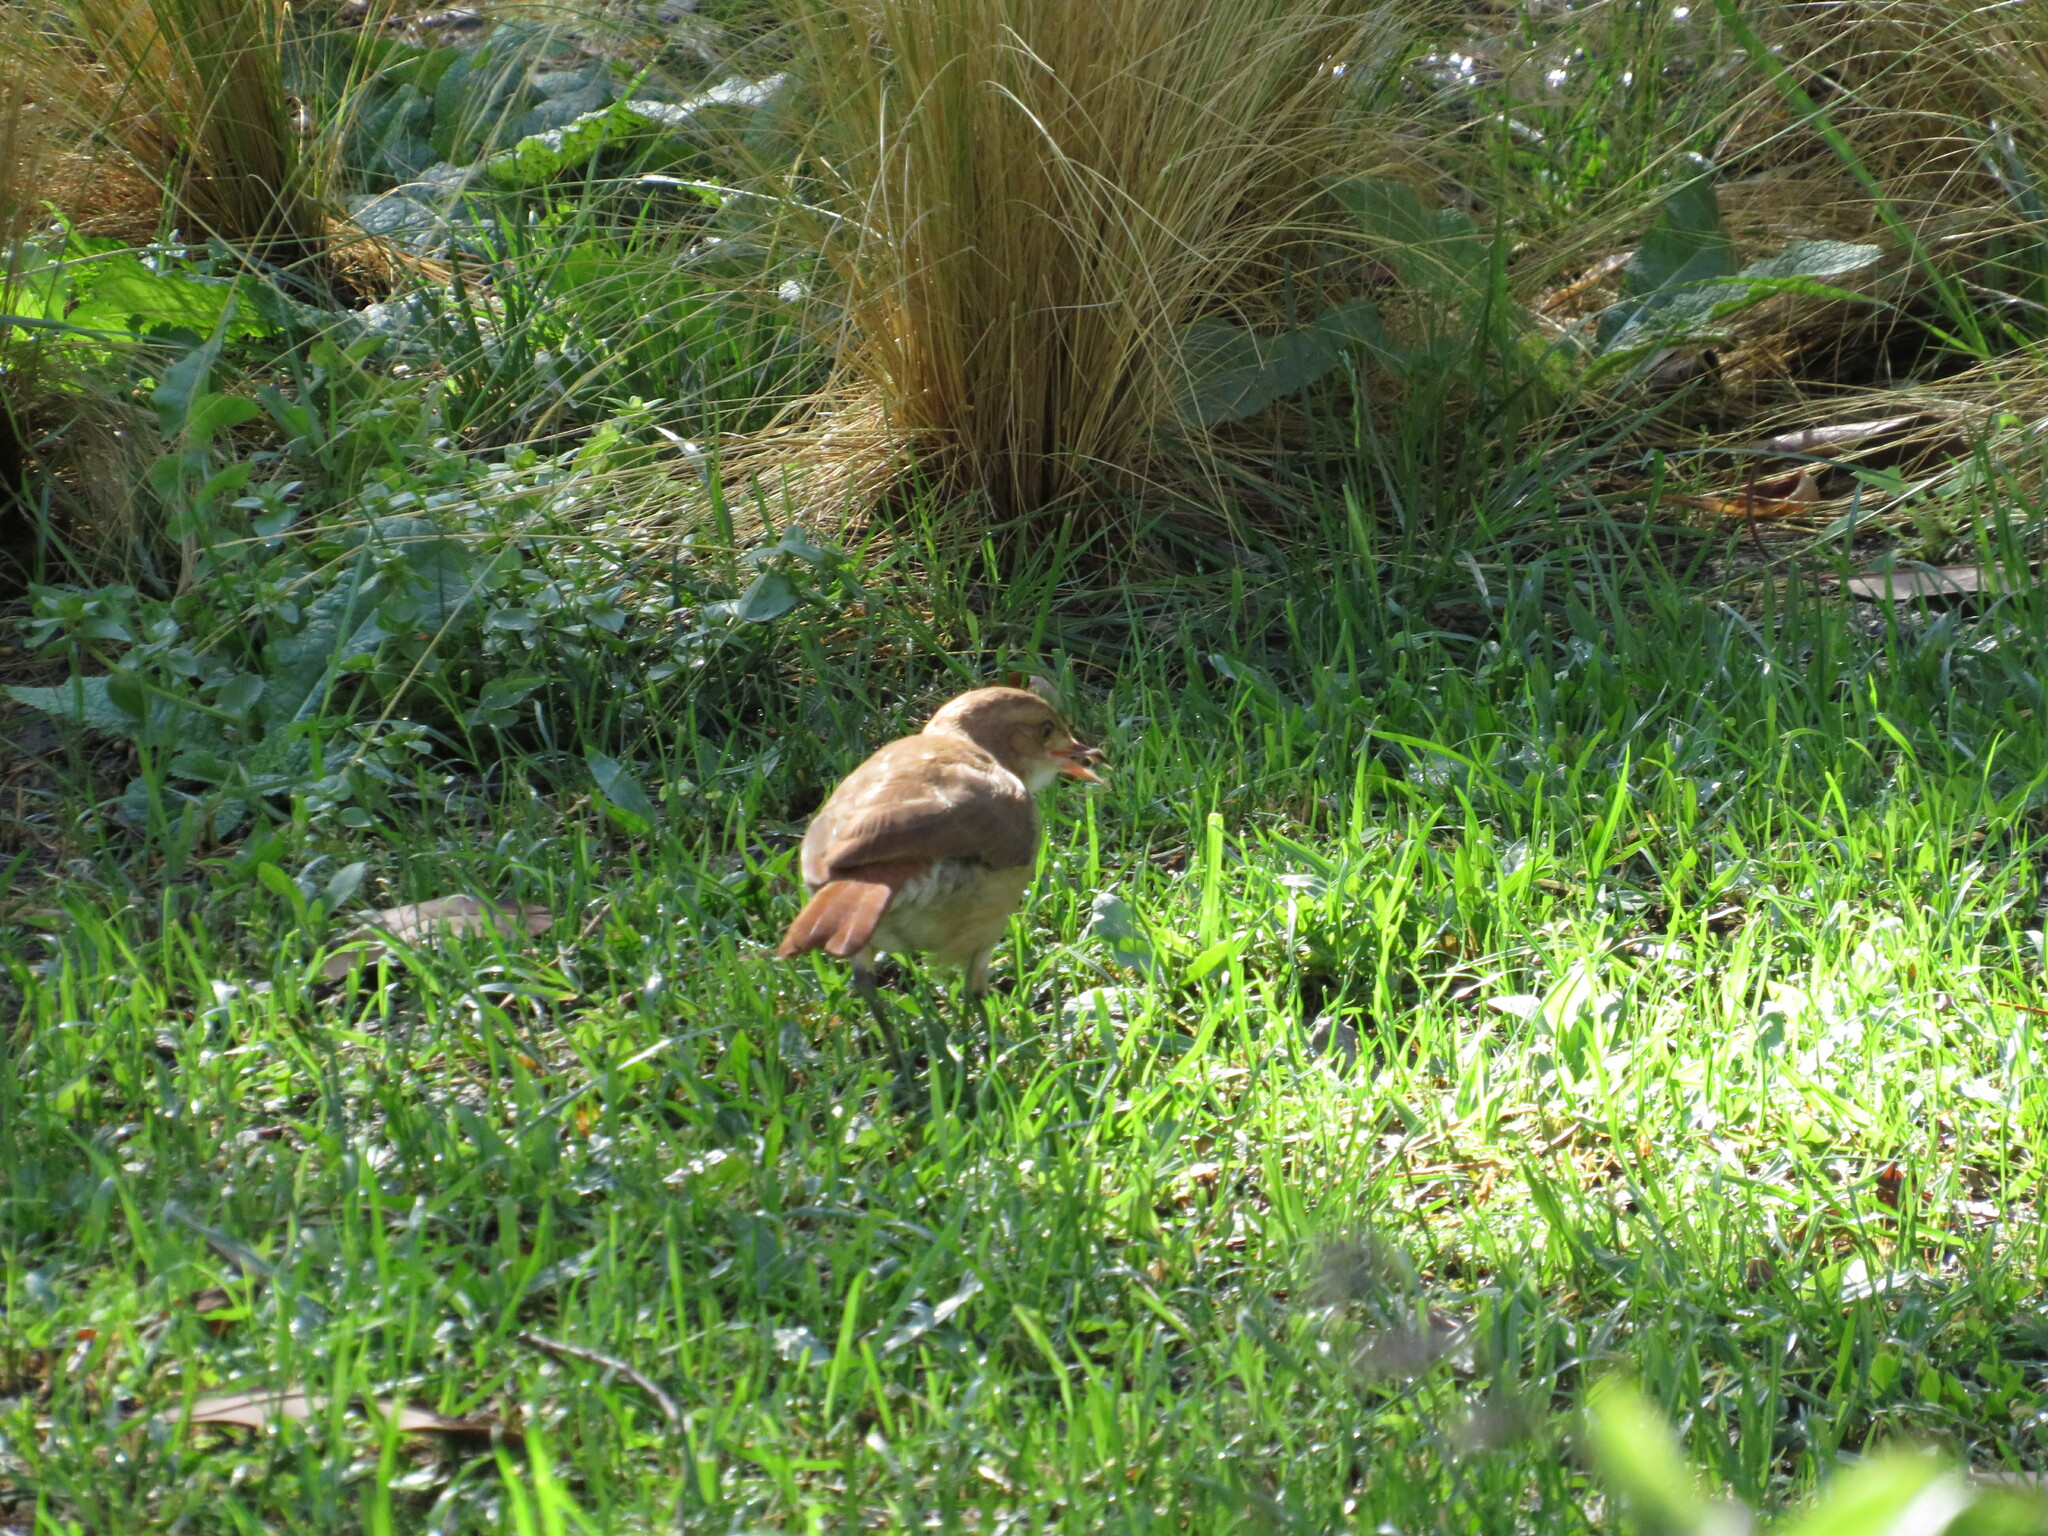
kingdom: Animalia
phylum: Chordata
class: Aves
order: Passeriformes
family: Furnariidae
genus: Furnarius
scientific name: Furnarius rufus
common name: Rufous hornero
